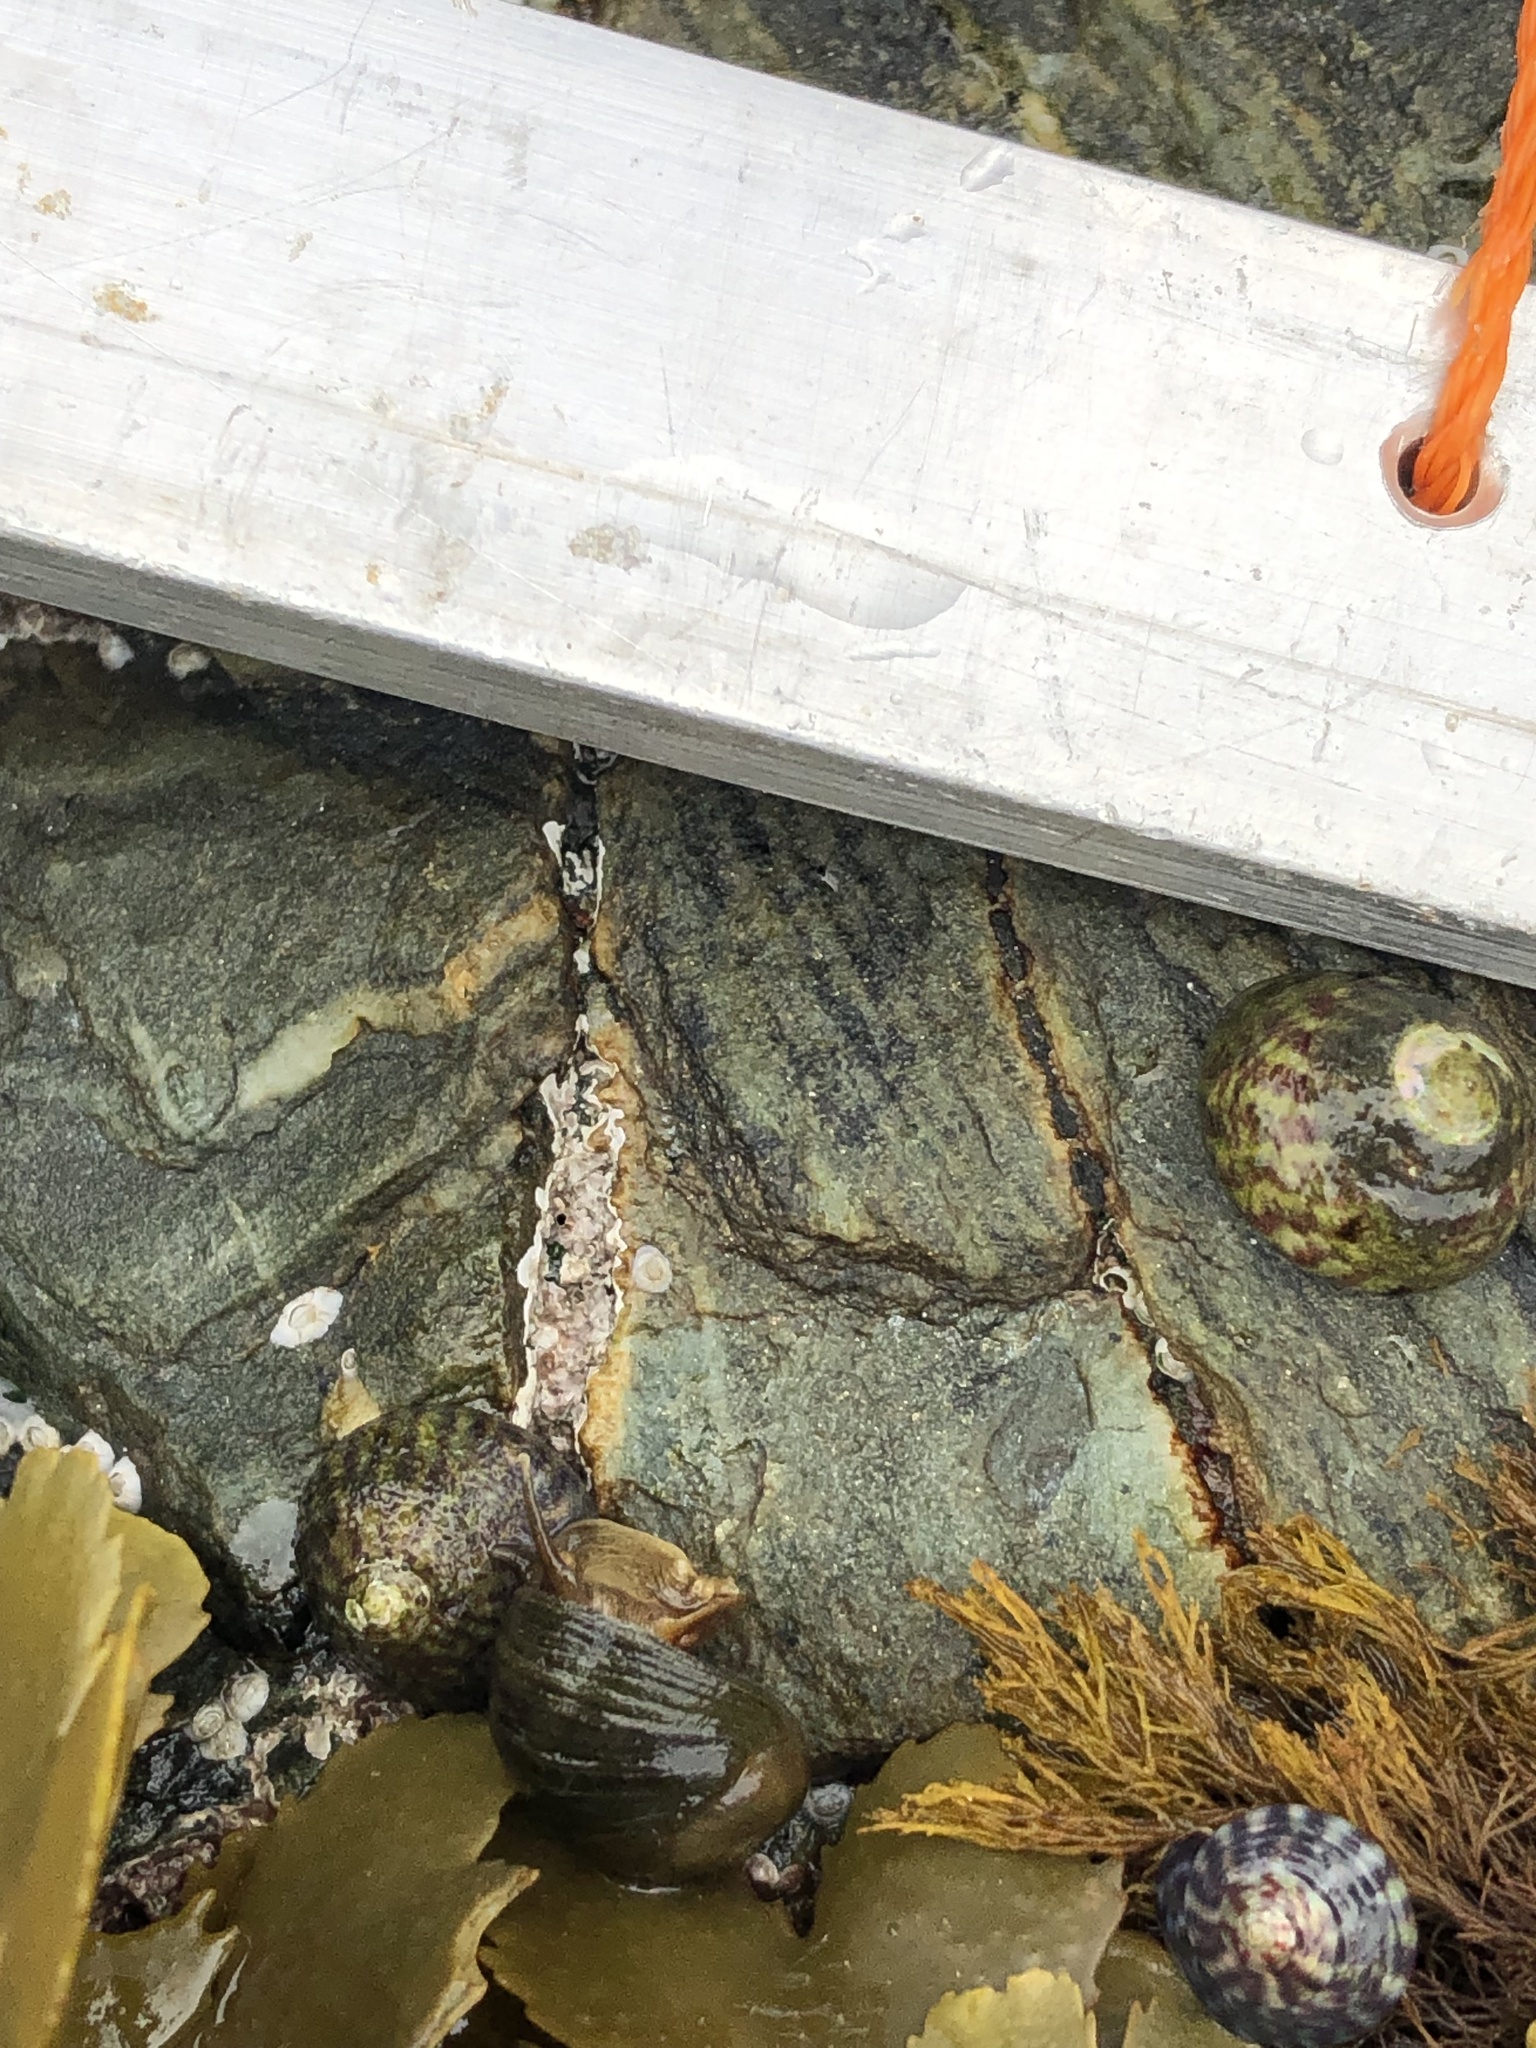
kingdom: Animalia
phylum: Mollusca
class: Gastropoda
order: Littorinimorpha
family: Littorinidae
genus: Littorina
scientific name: Littorina fabalis
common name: Flat periwinkle
